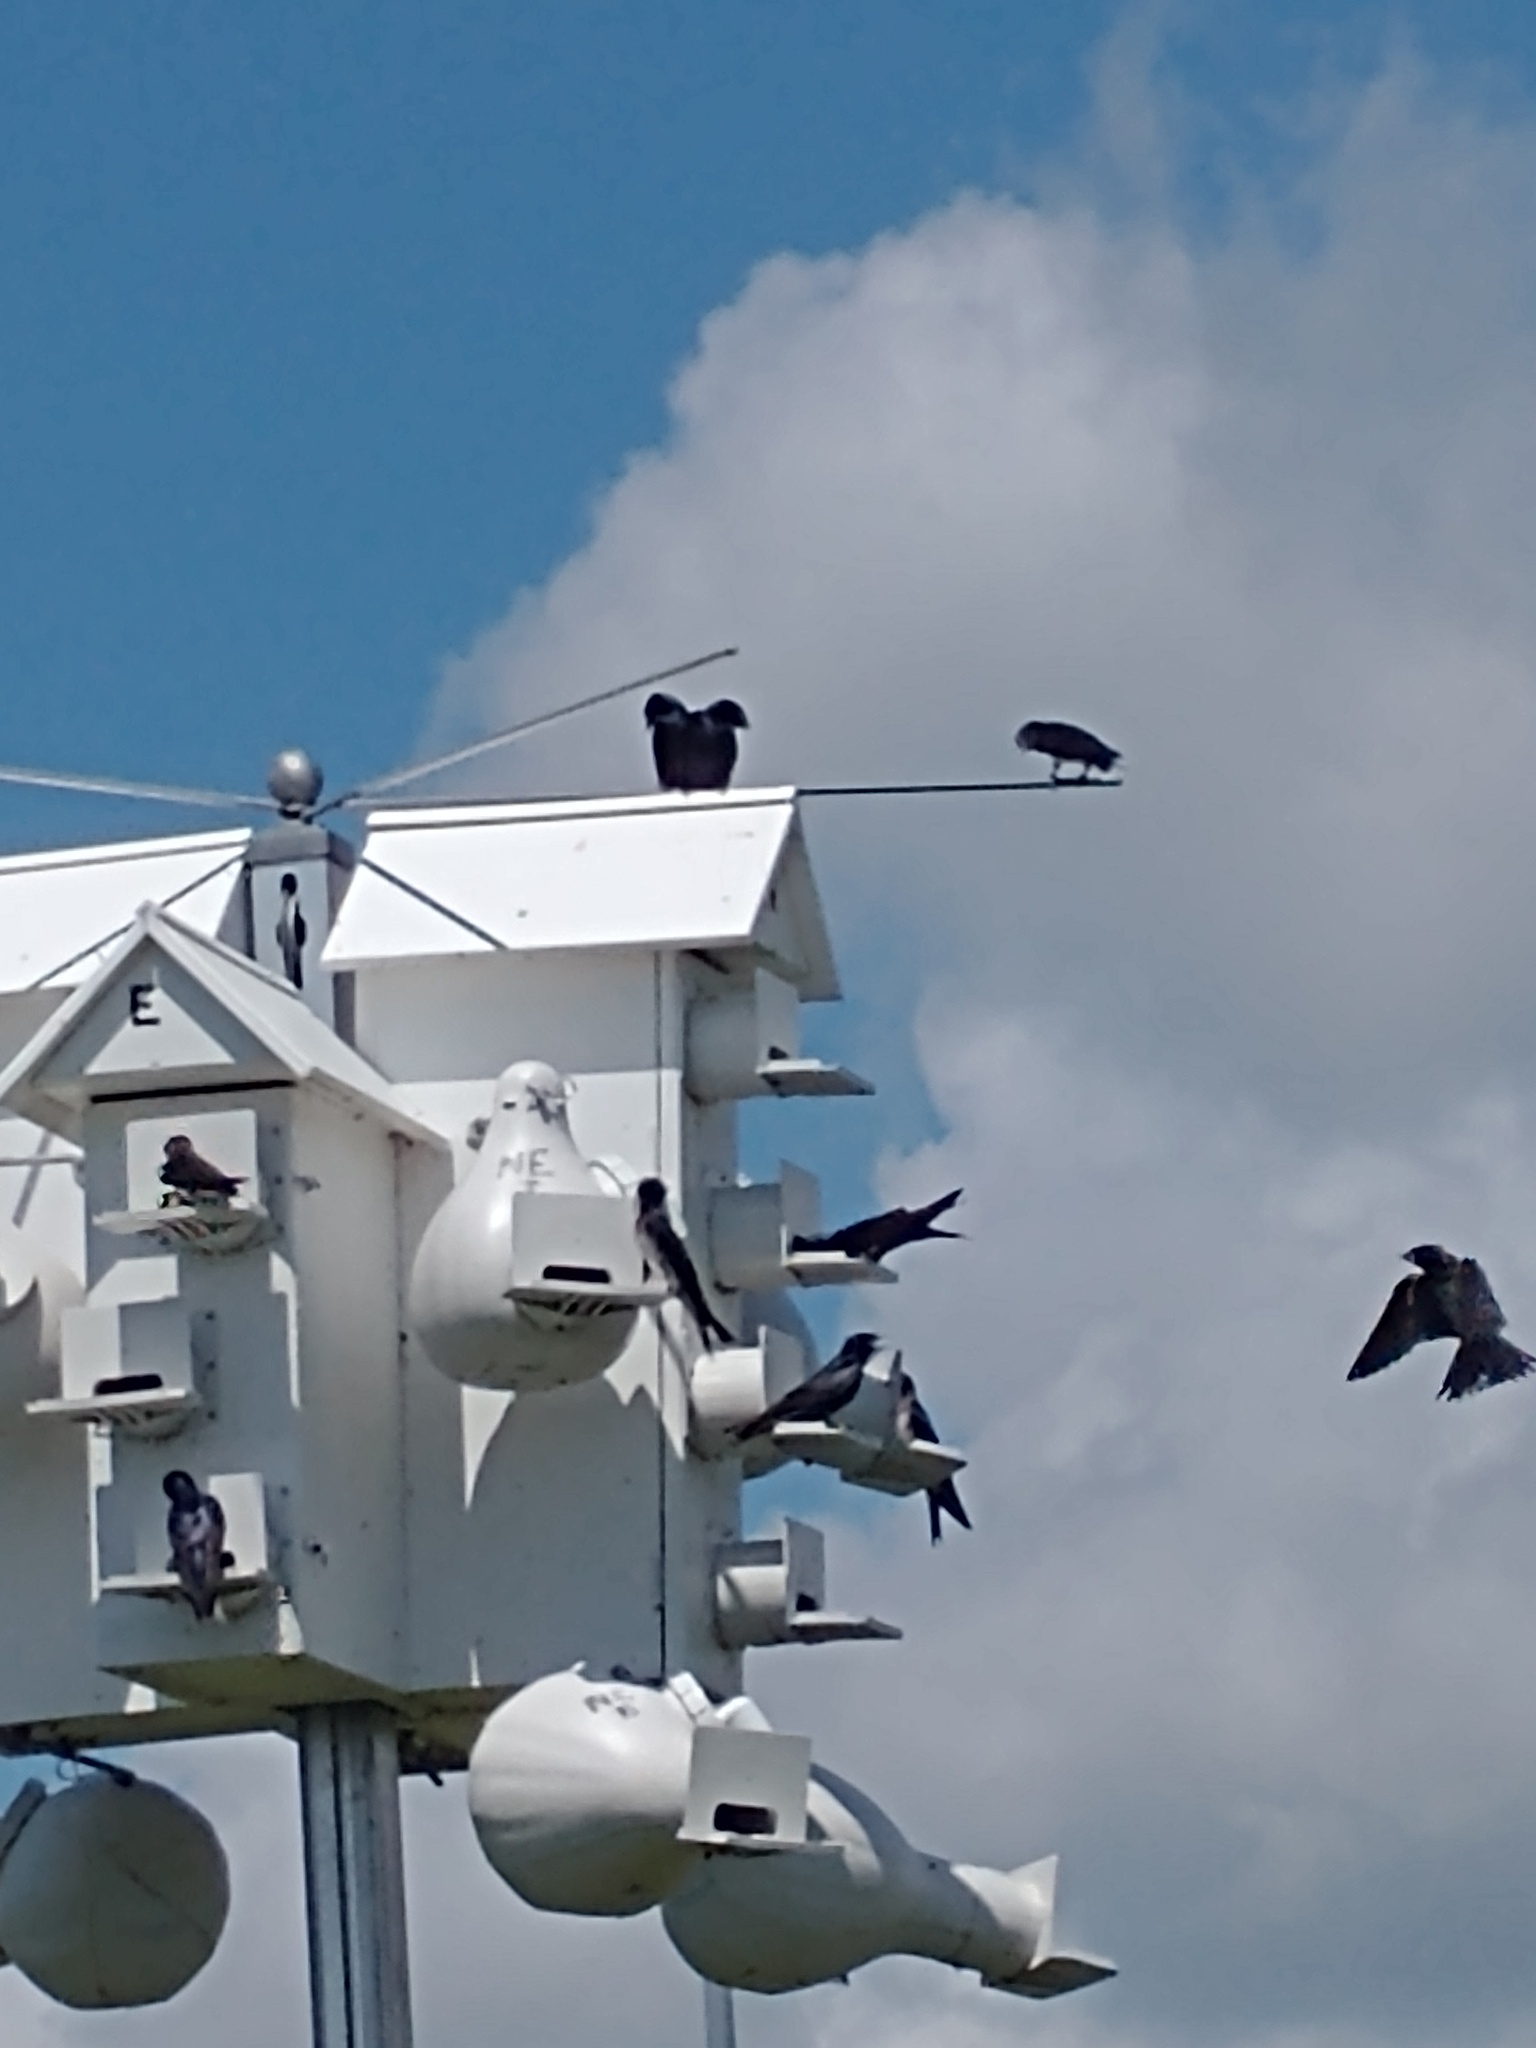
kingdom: Animalia
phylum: Chordata
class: Aves
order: Passeriformes
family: Hirundinidae
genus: Progne
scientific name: Progne subis
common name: Purple martin
